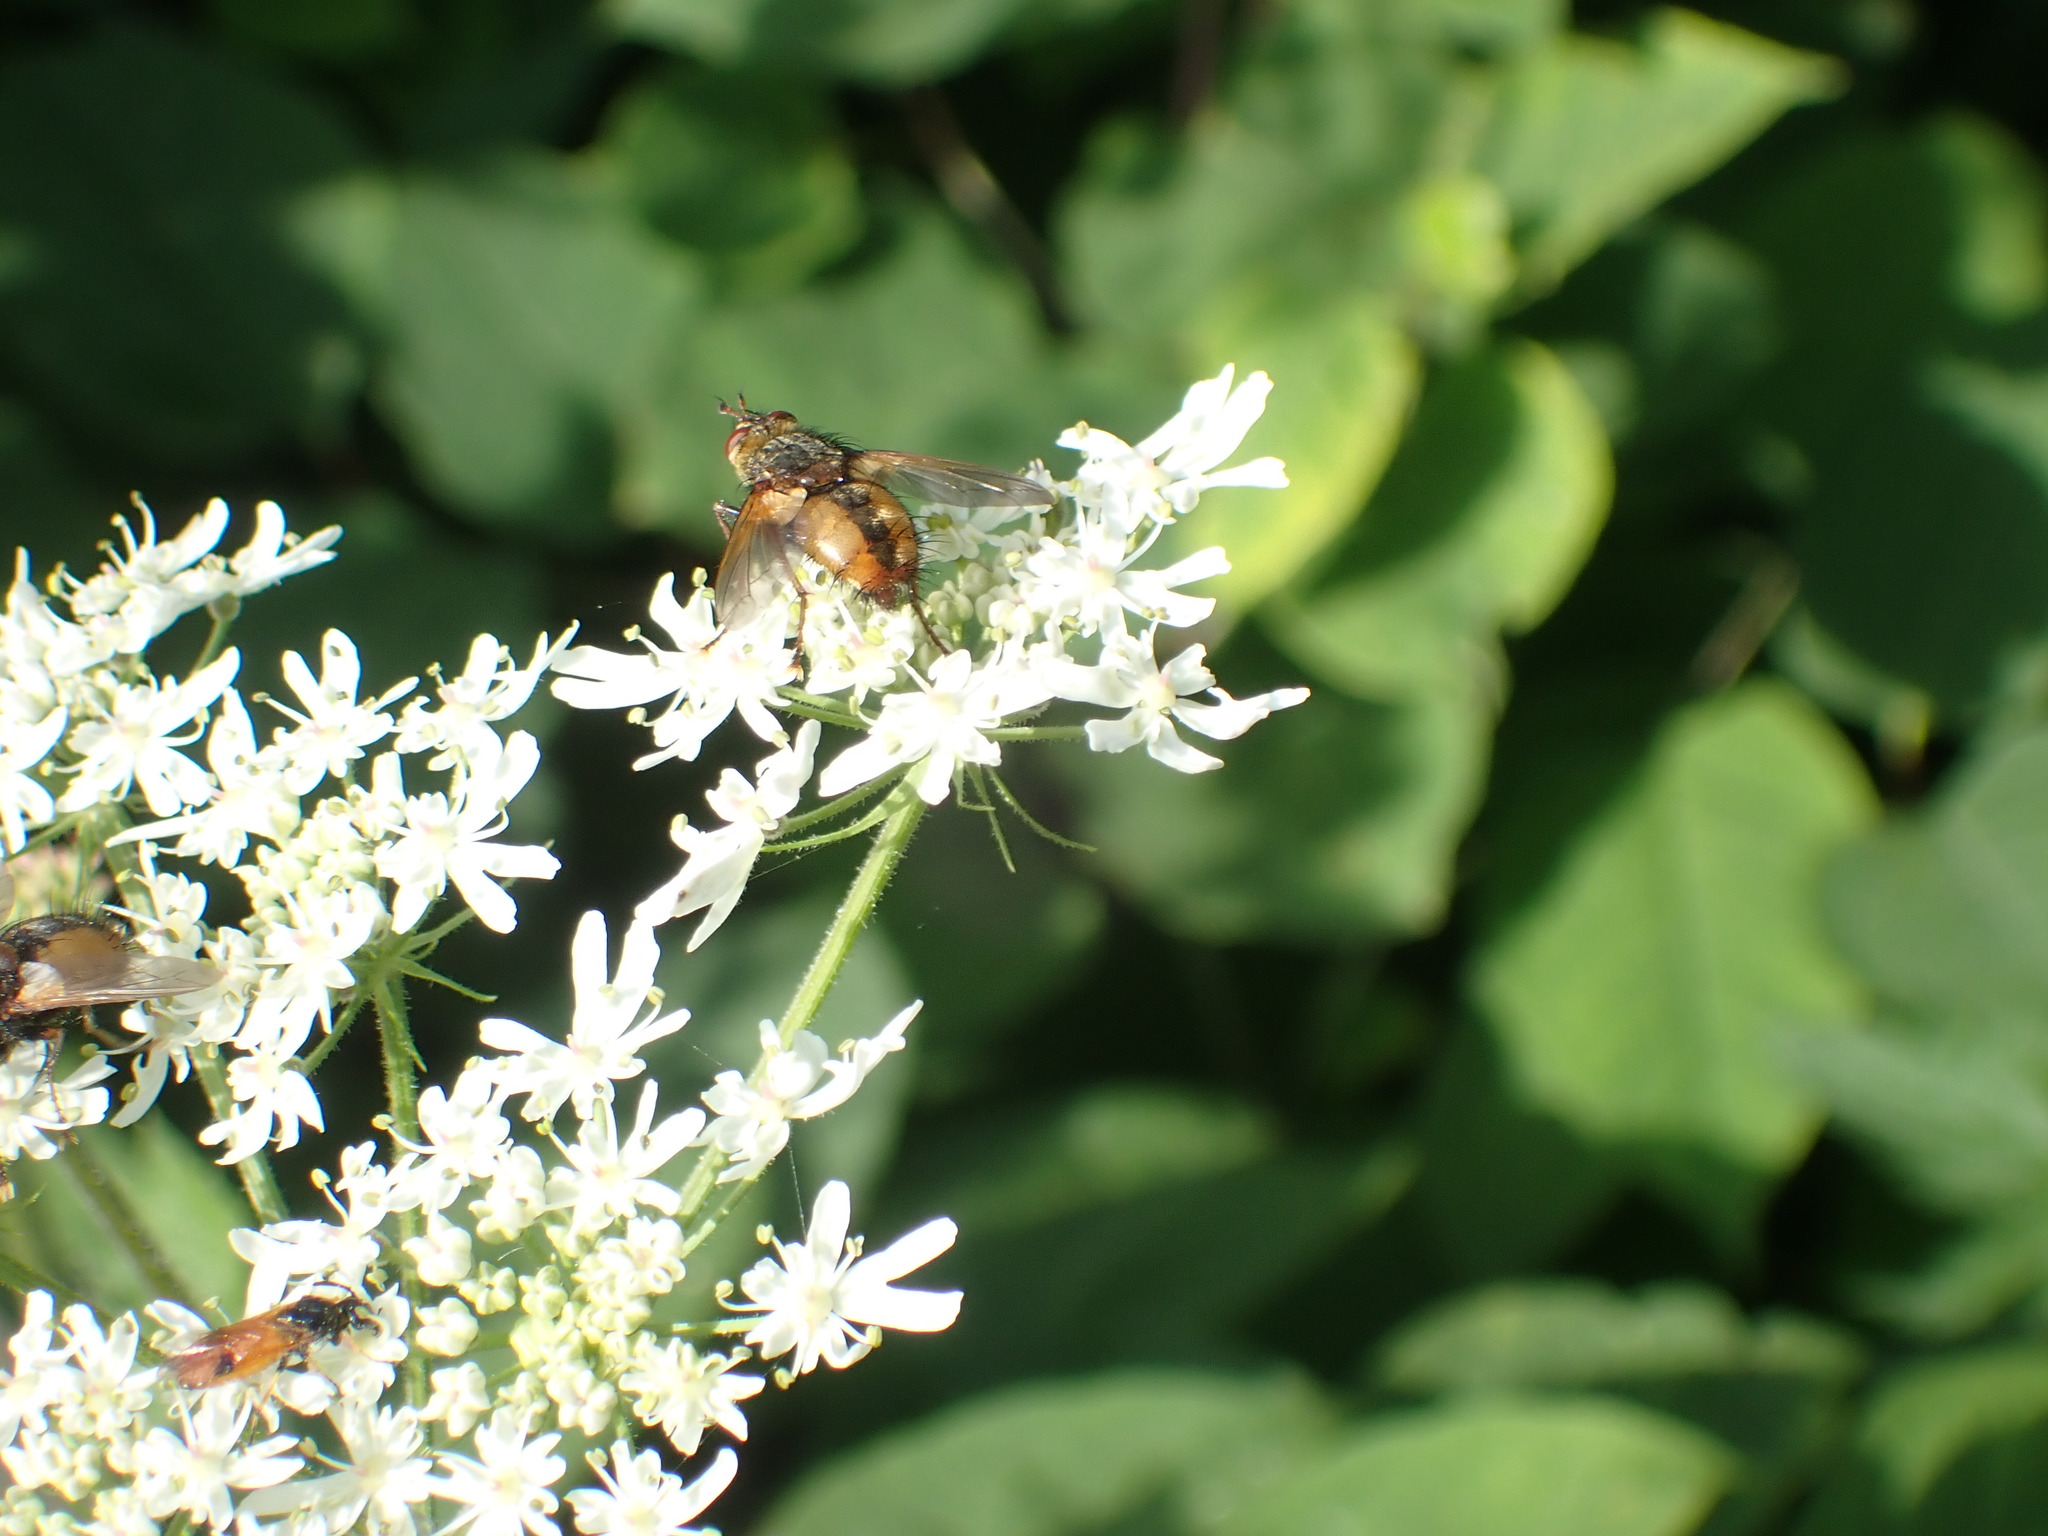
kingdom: Animalia
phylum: Arthropoda
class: Insecta
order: Diptera
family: Tachinidae
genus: Tachina
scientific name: Tachina fera
